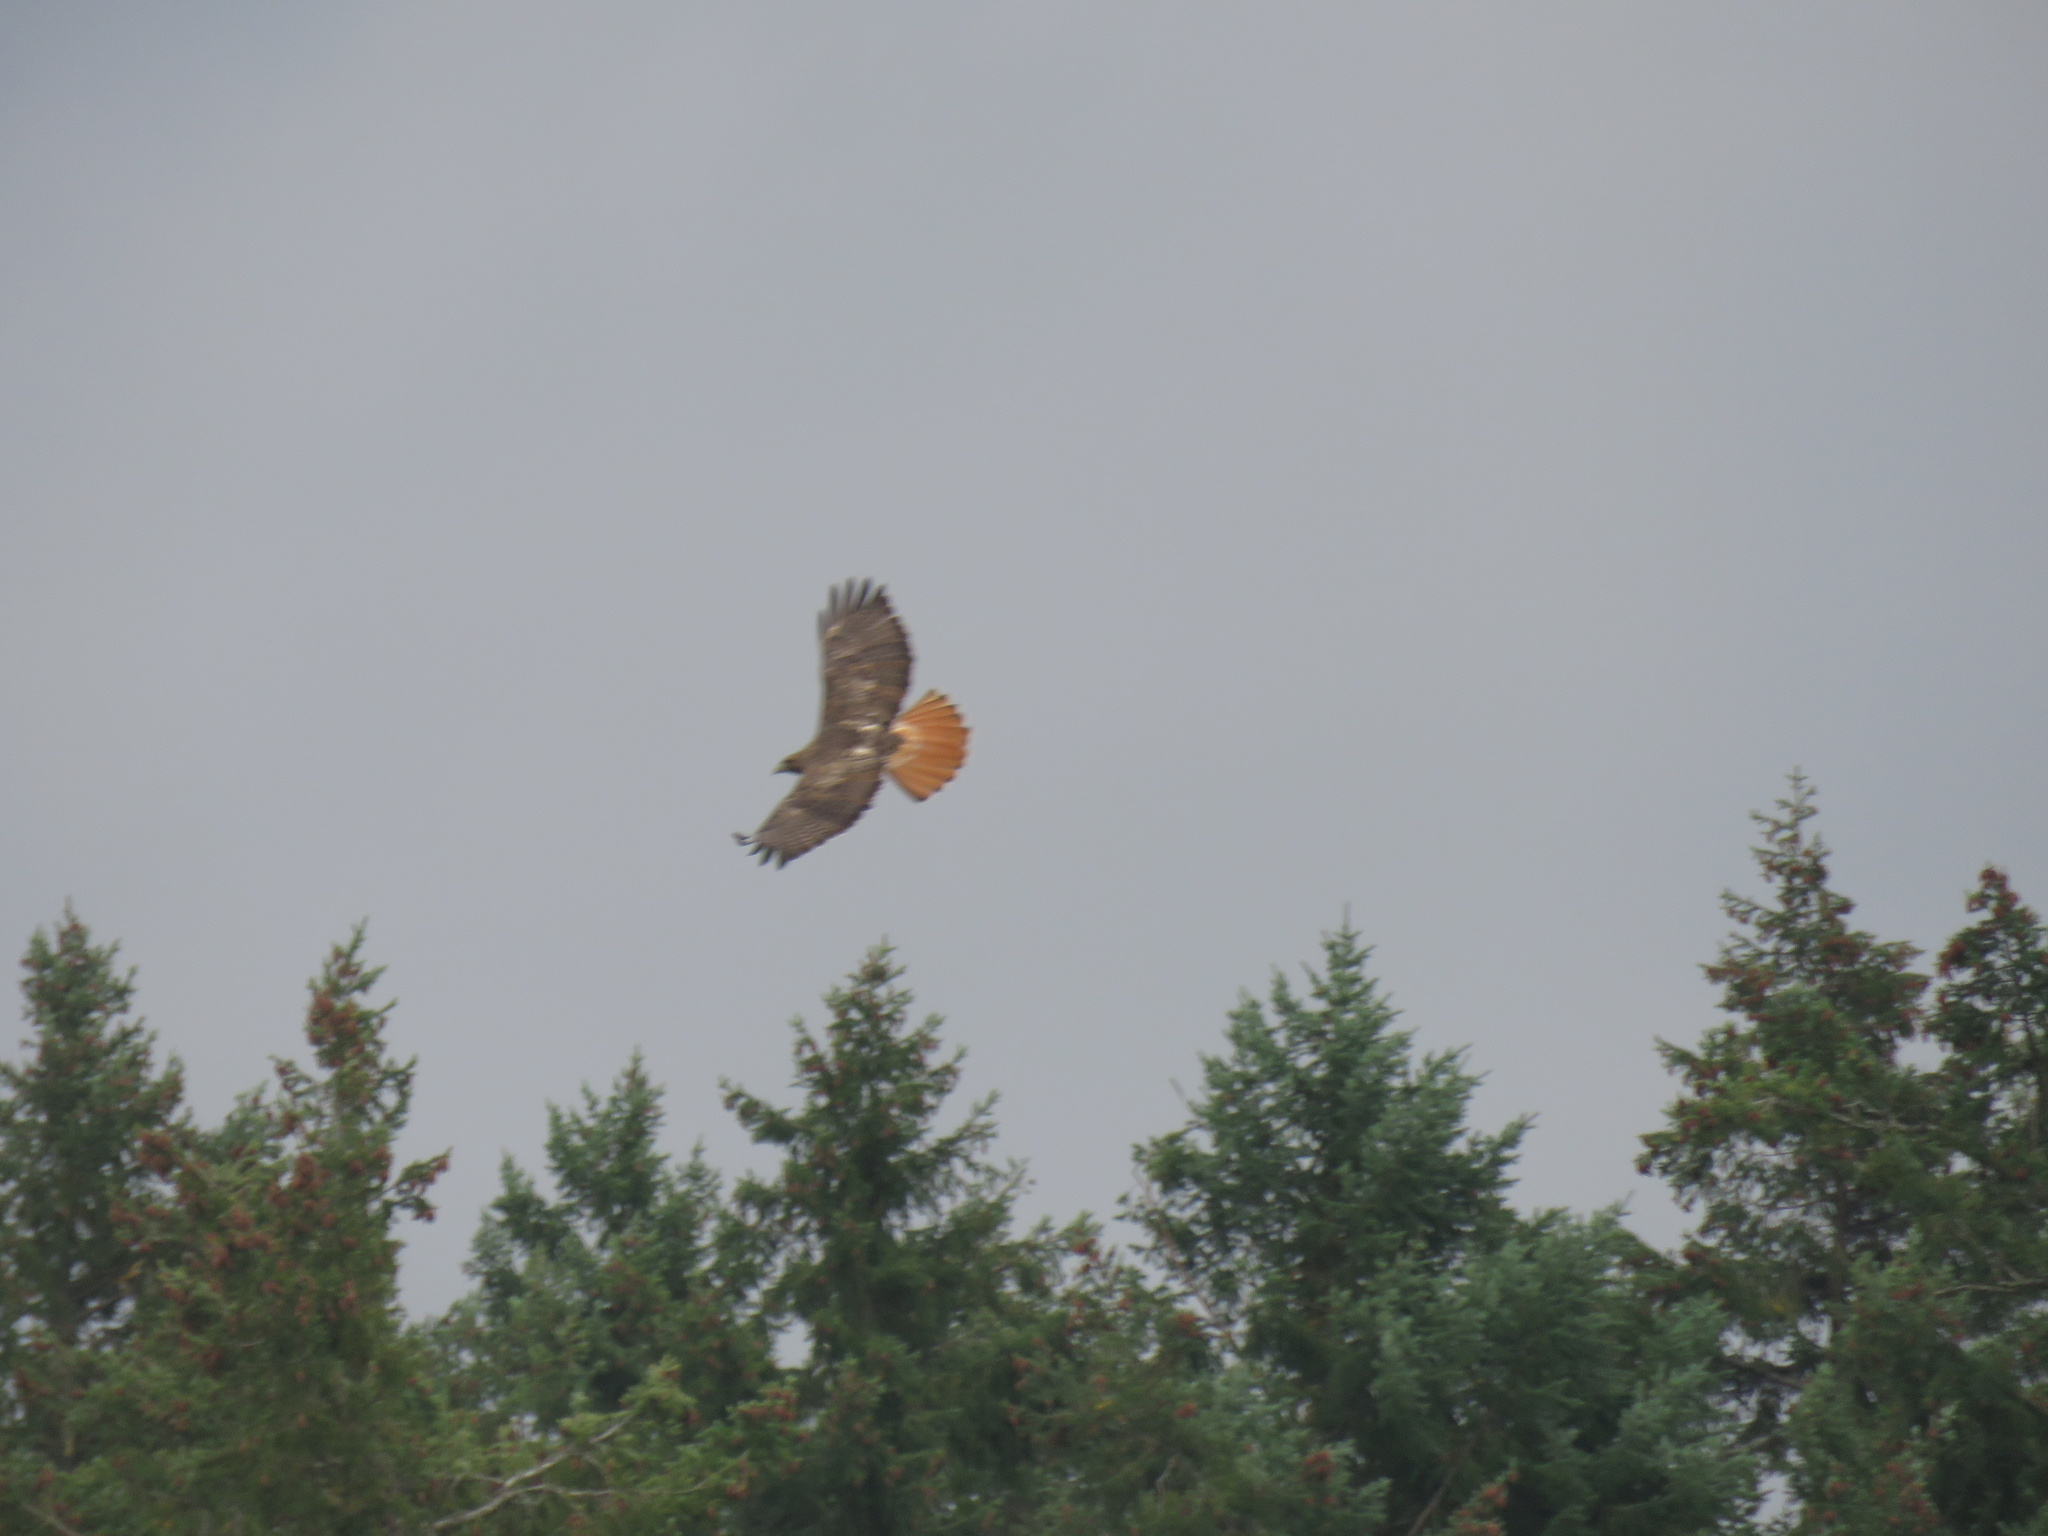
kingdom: Animalia
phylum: Chordata
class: Aves
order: Accipitriformes
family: Accipitridae
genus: Buteo
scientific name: Buteo jamaicensis
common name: Red-tailed hawk
